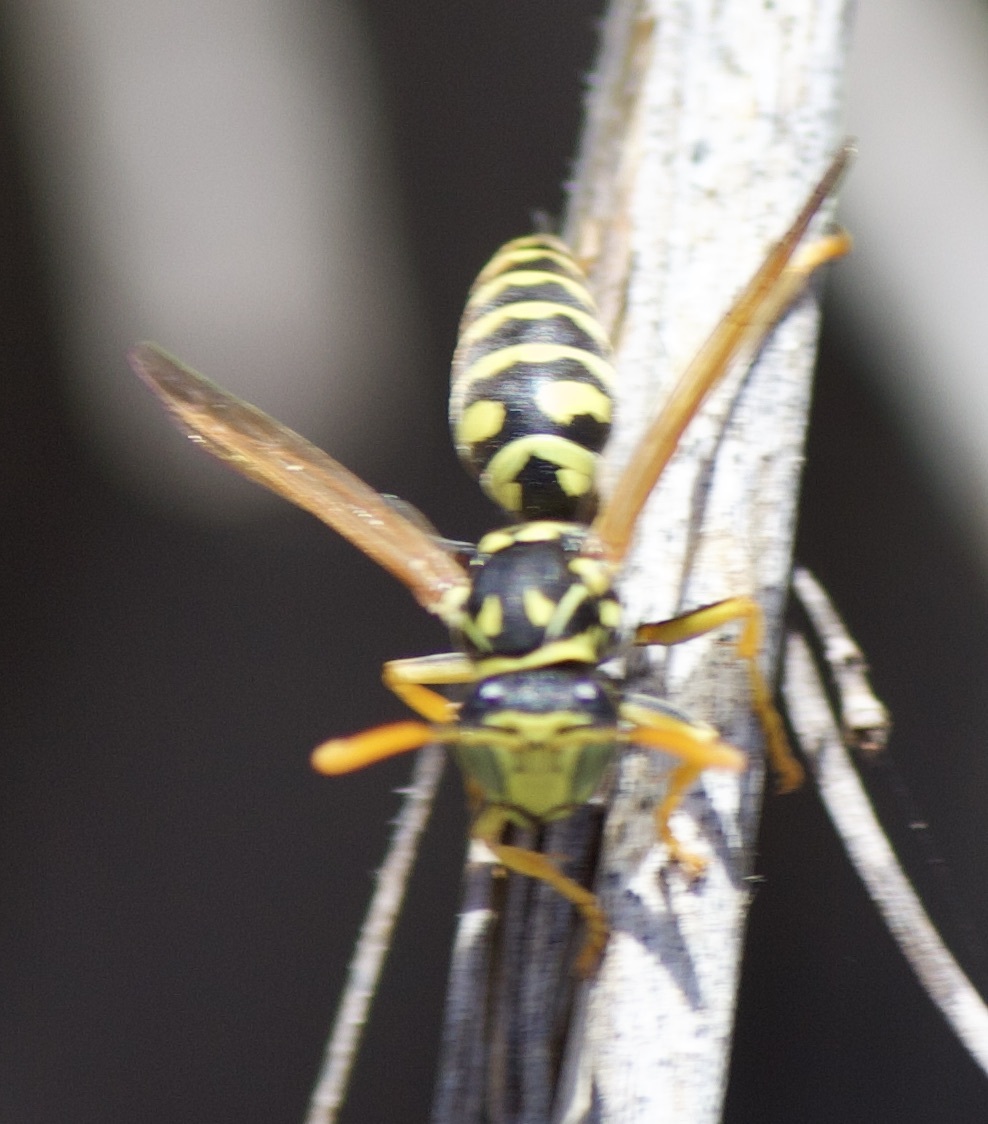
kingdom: Animalia
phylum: Arthropoda
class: Insecta
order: Hymenoptera
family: Eumenidae
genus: Polistes
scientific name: Polistes dominula
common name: Paper wasp
